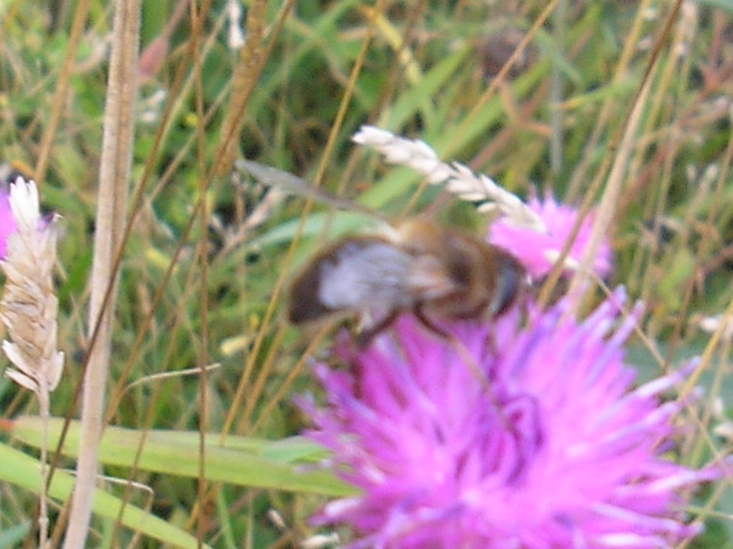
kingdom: Animalia
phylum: Arthropoda
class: Insecta
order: Diptera
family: Syrphidae
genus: Eristalis
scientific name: Eristalis
